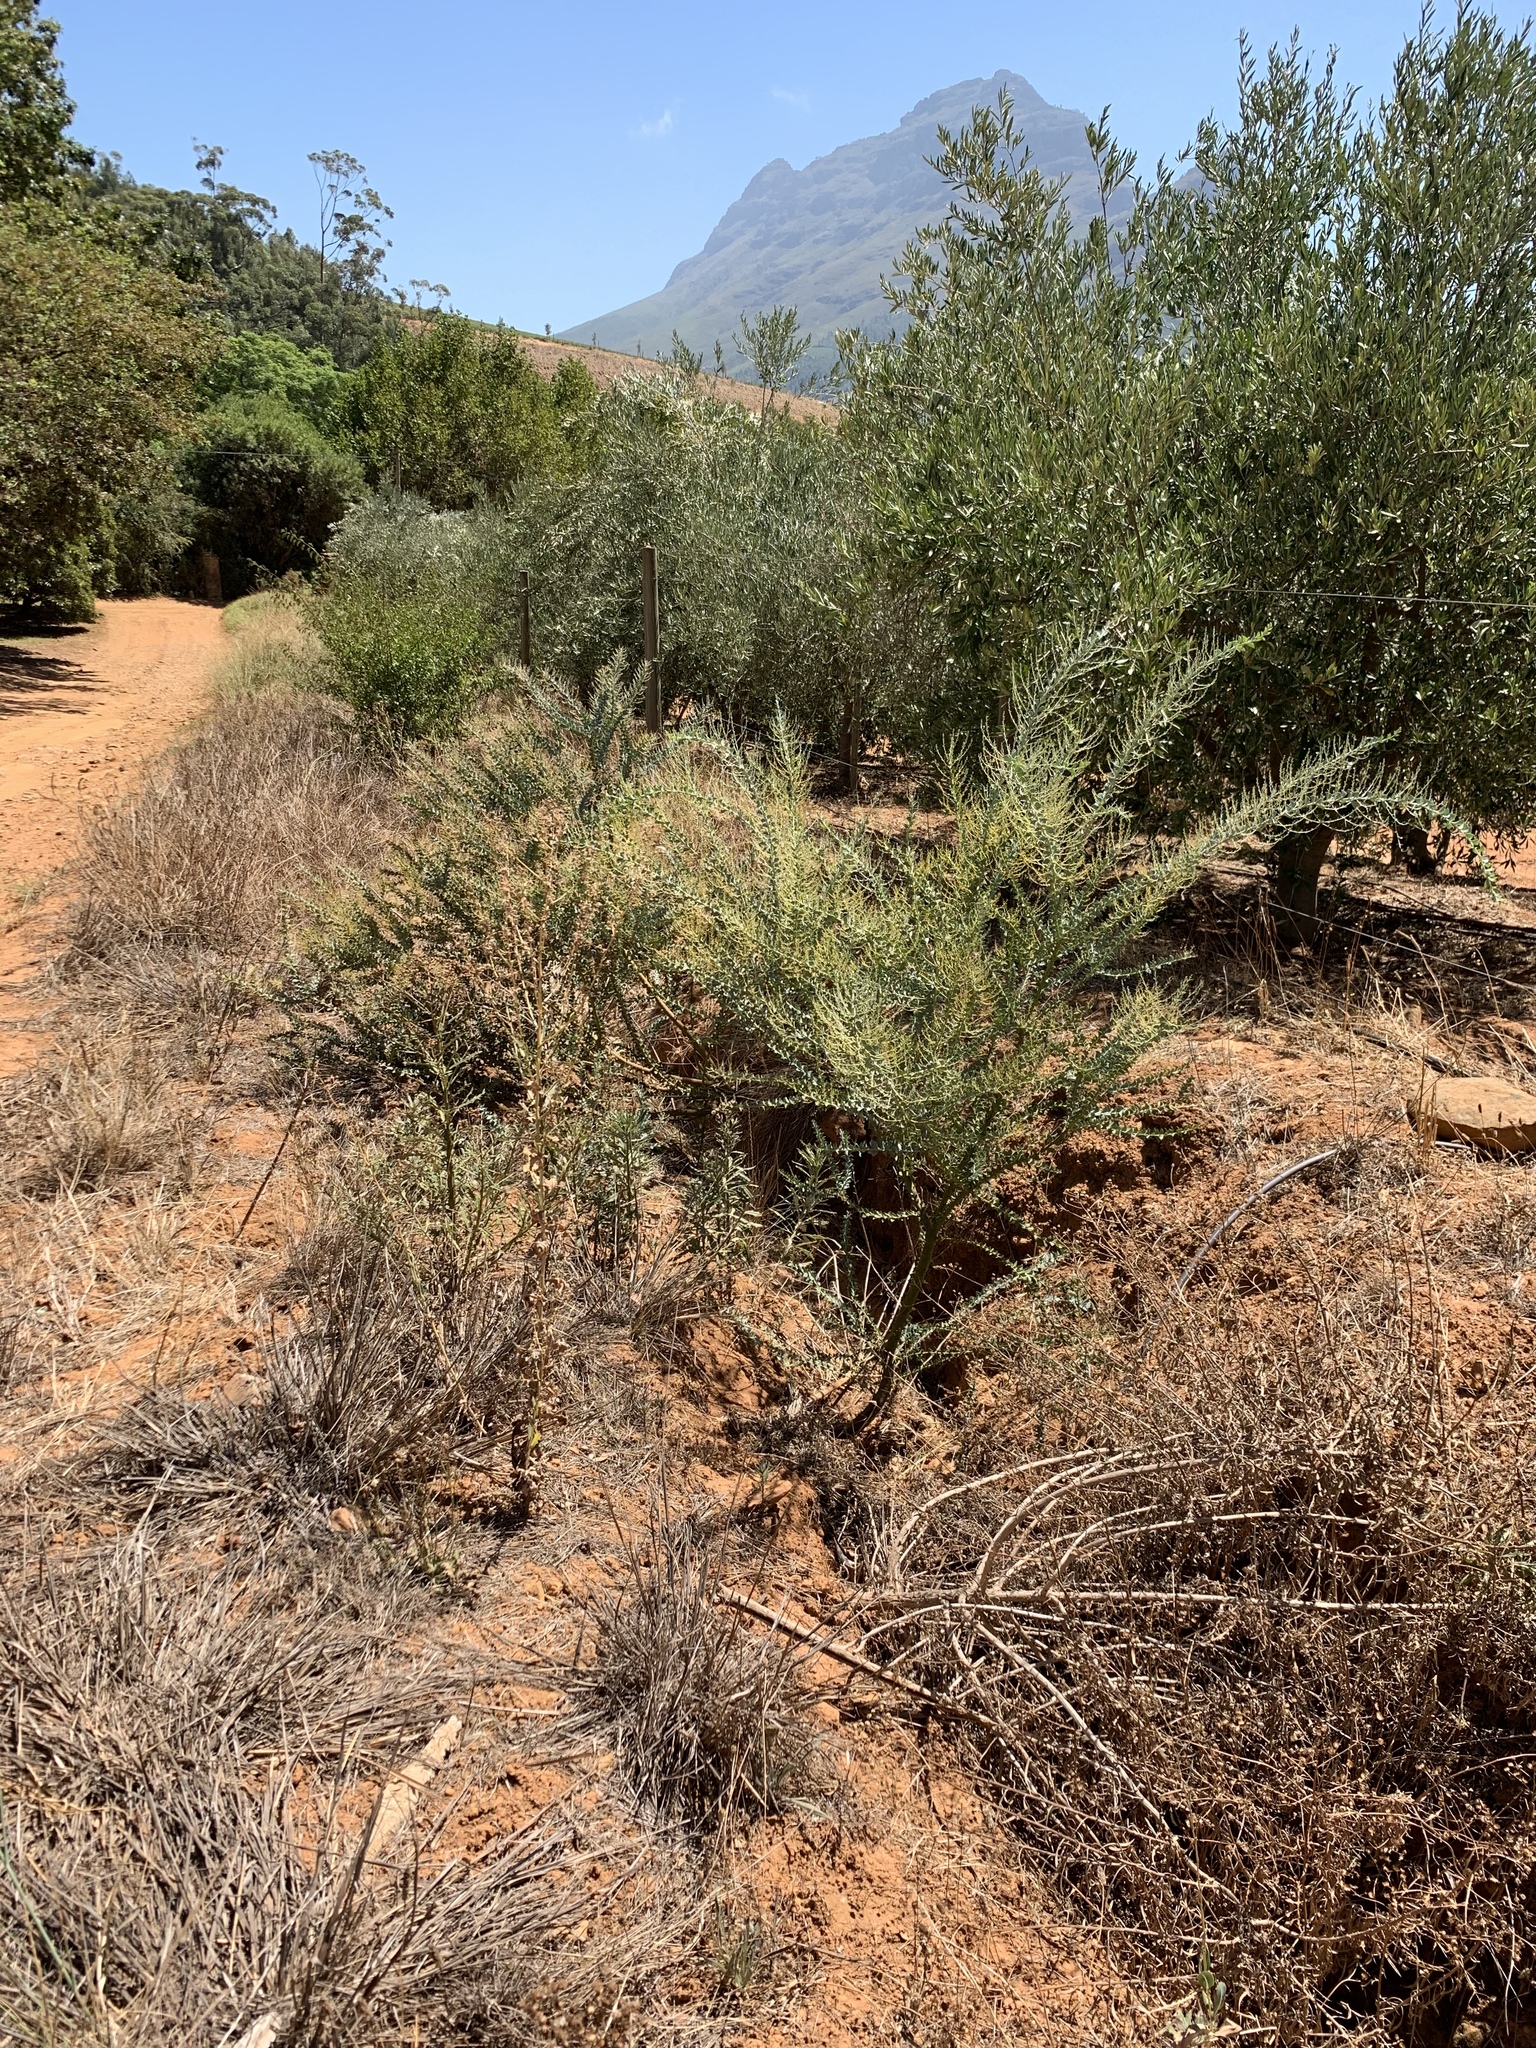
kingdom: Plantae
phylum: Tracheophyta
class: Magnoliopsida
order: Fabales
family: Fabaceae
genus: Acacia
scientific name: Acacia cultriformis
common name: Knife acacia
